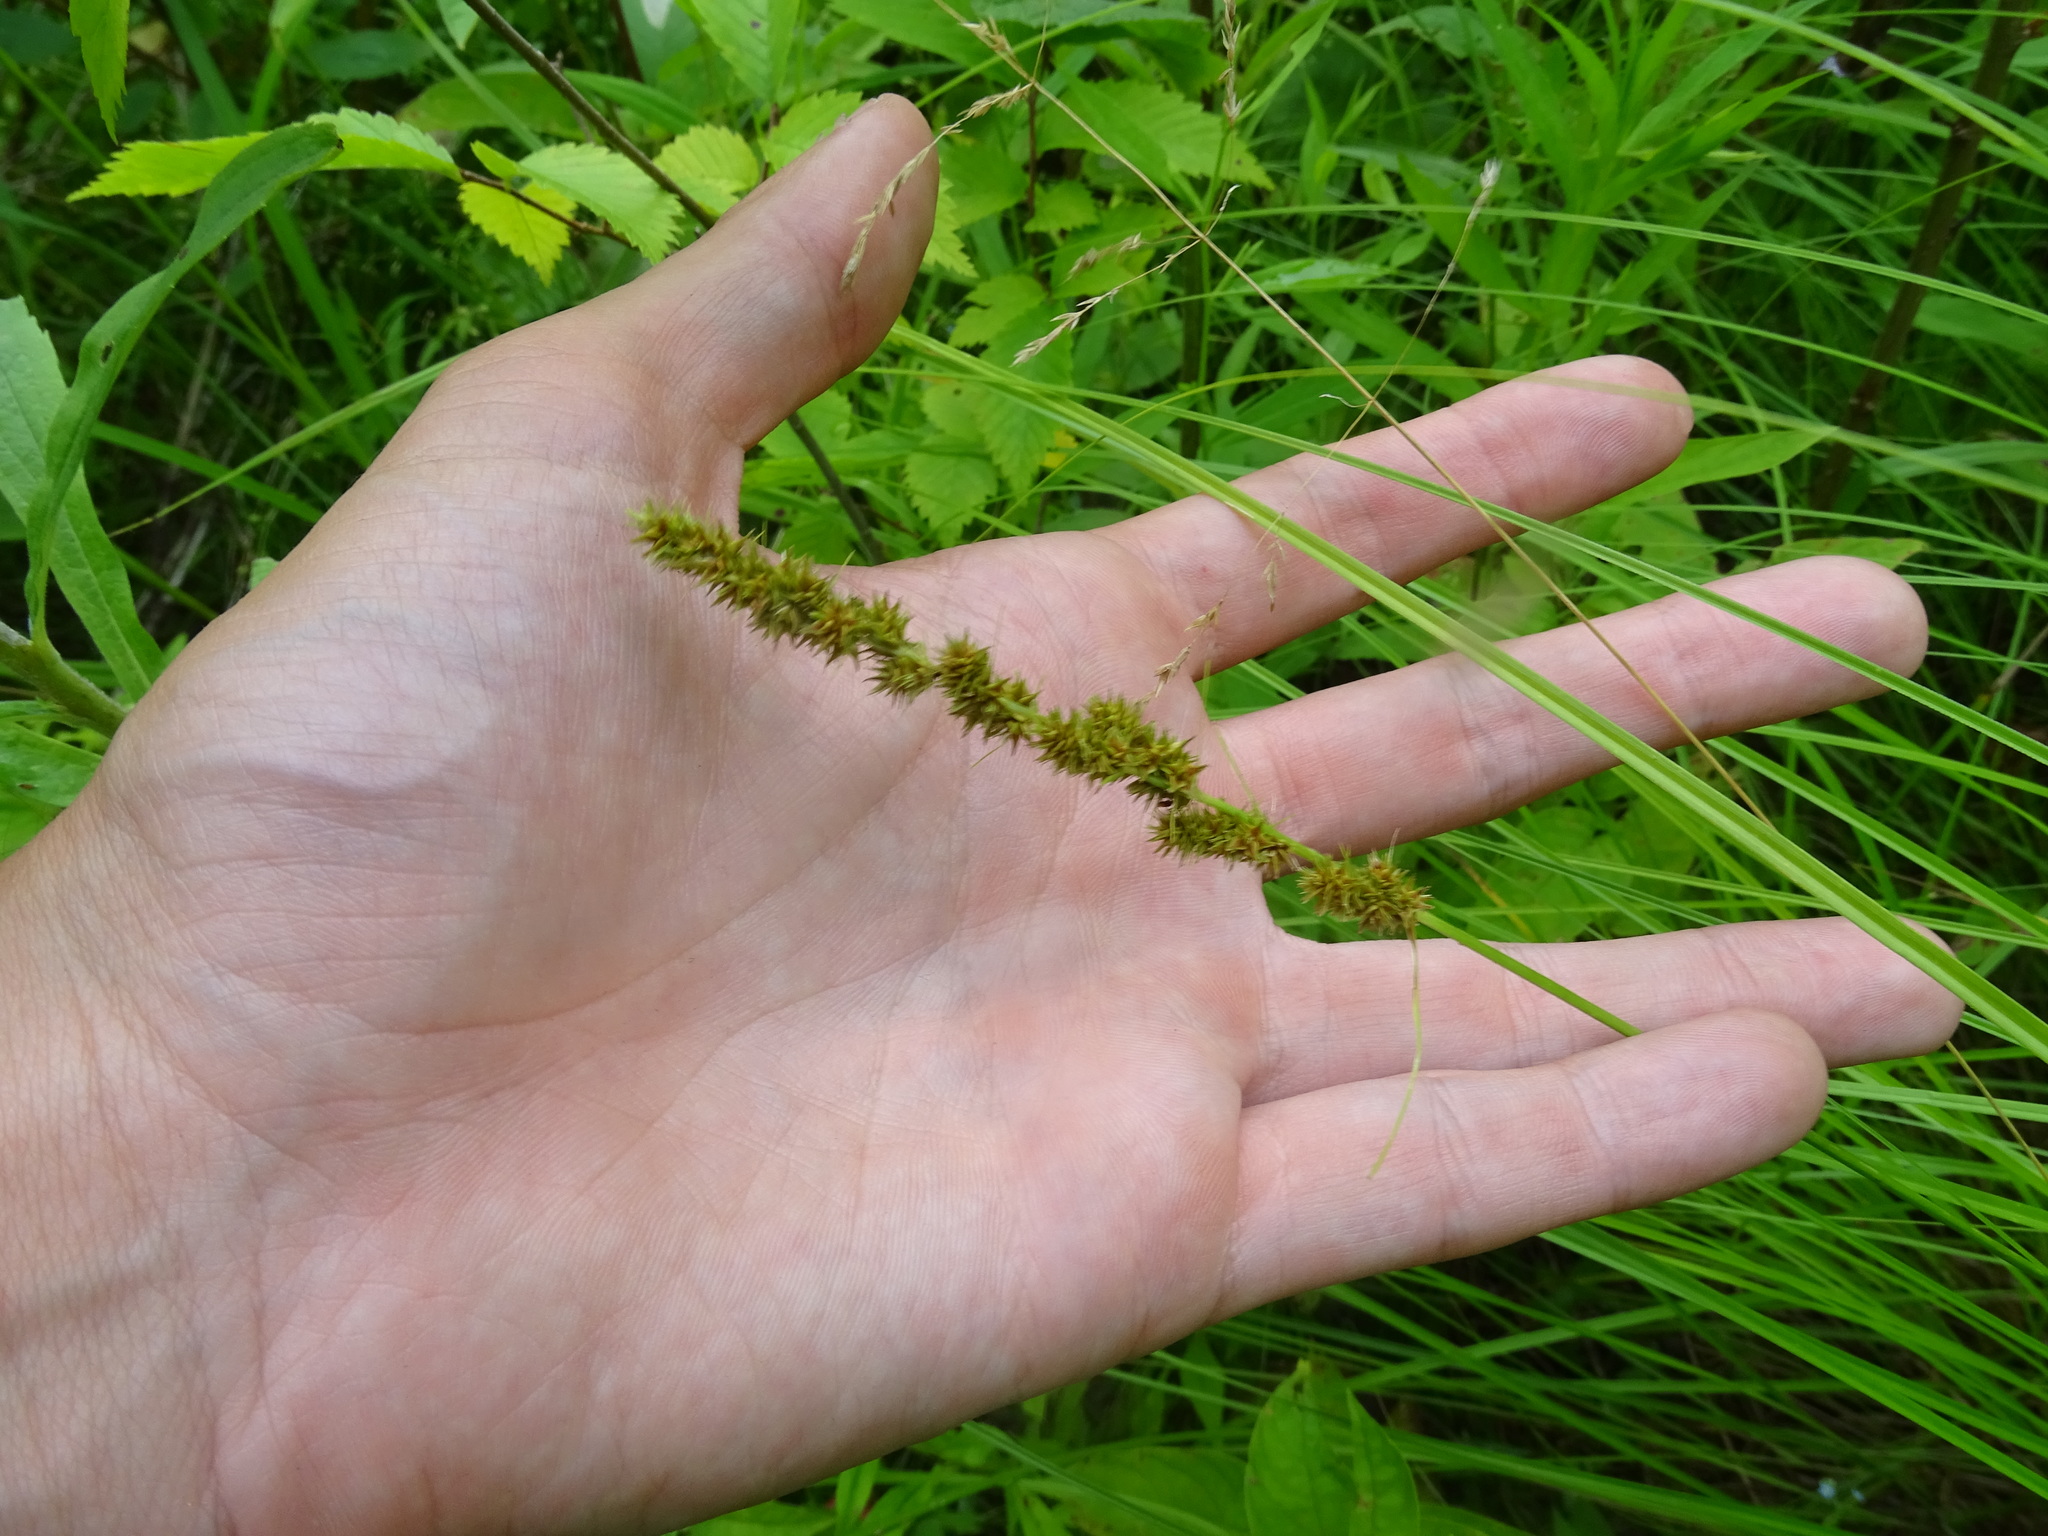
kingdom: Plantae
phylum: Tracheophyta
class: Liliopsida
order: Poales
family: Cyperaceae
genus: Carex
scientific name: Carex vulpinoidea
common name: American fox-sedge
